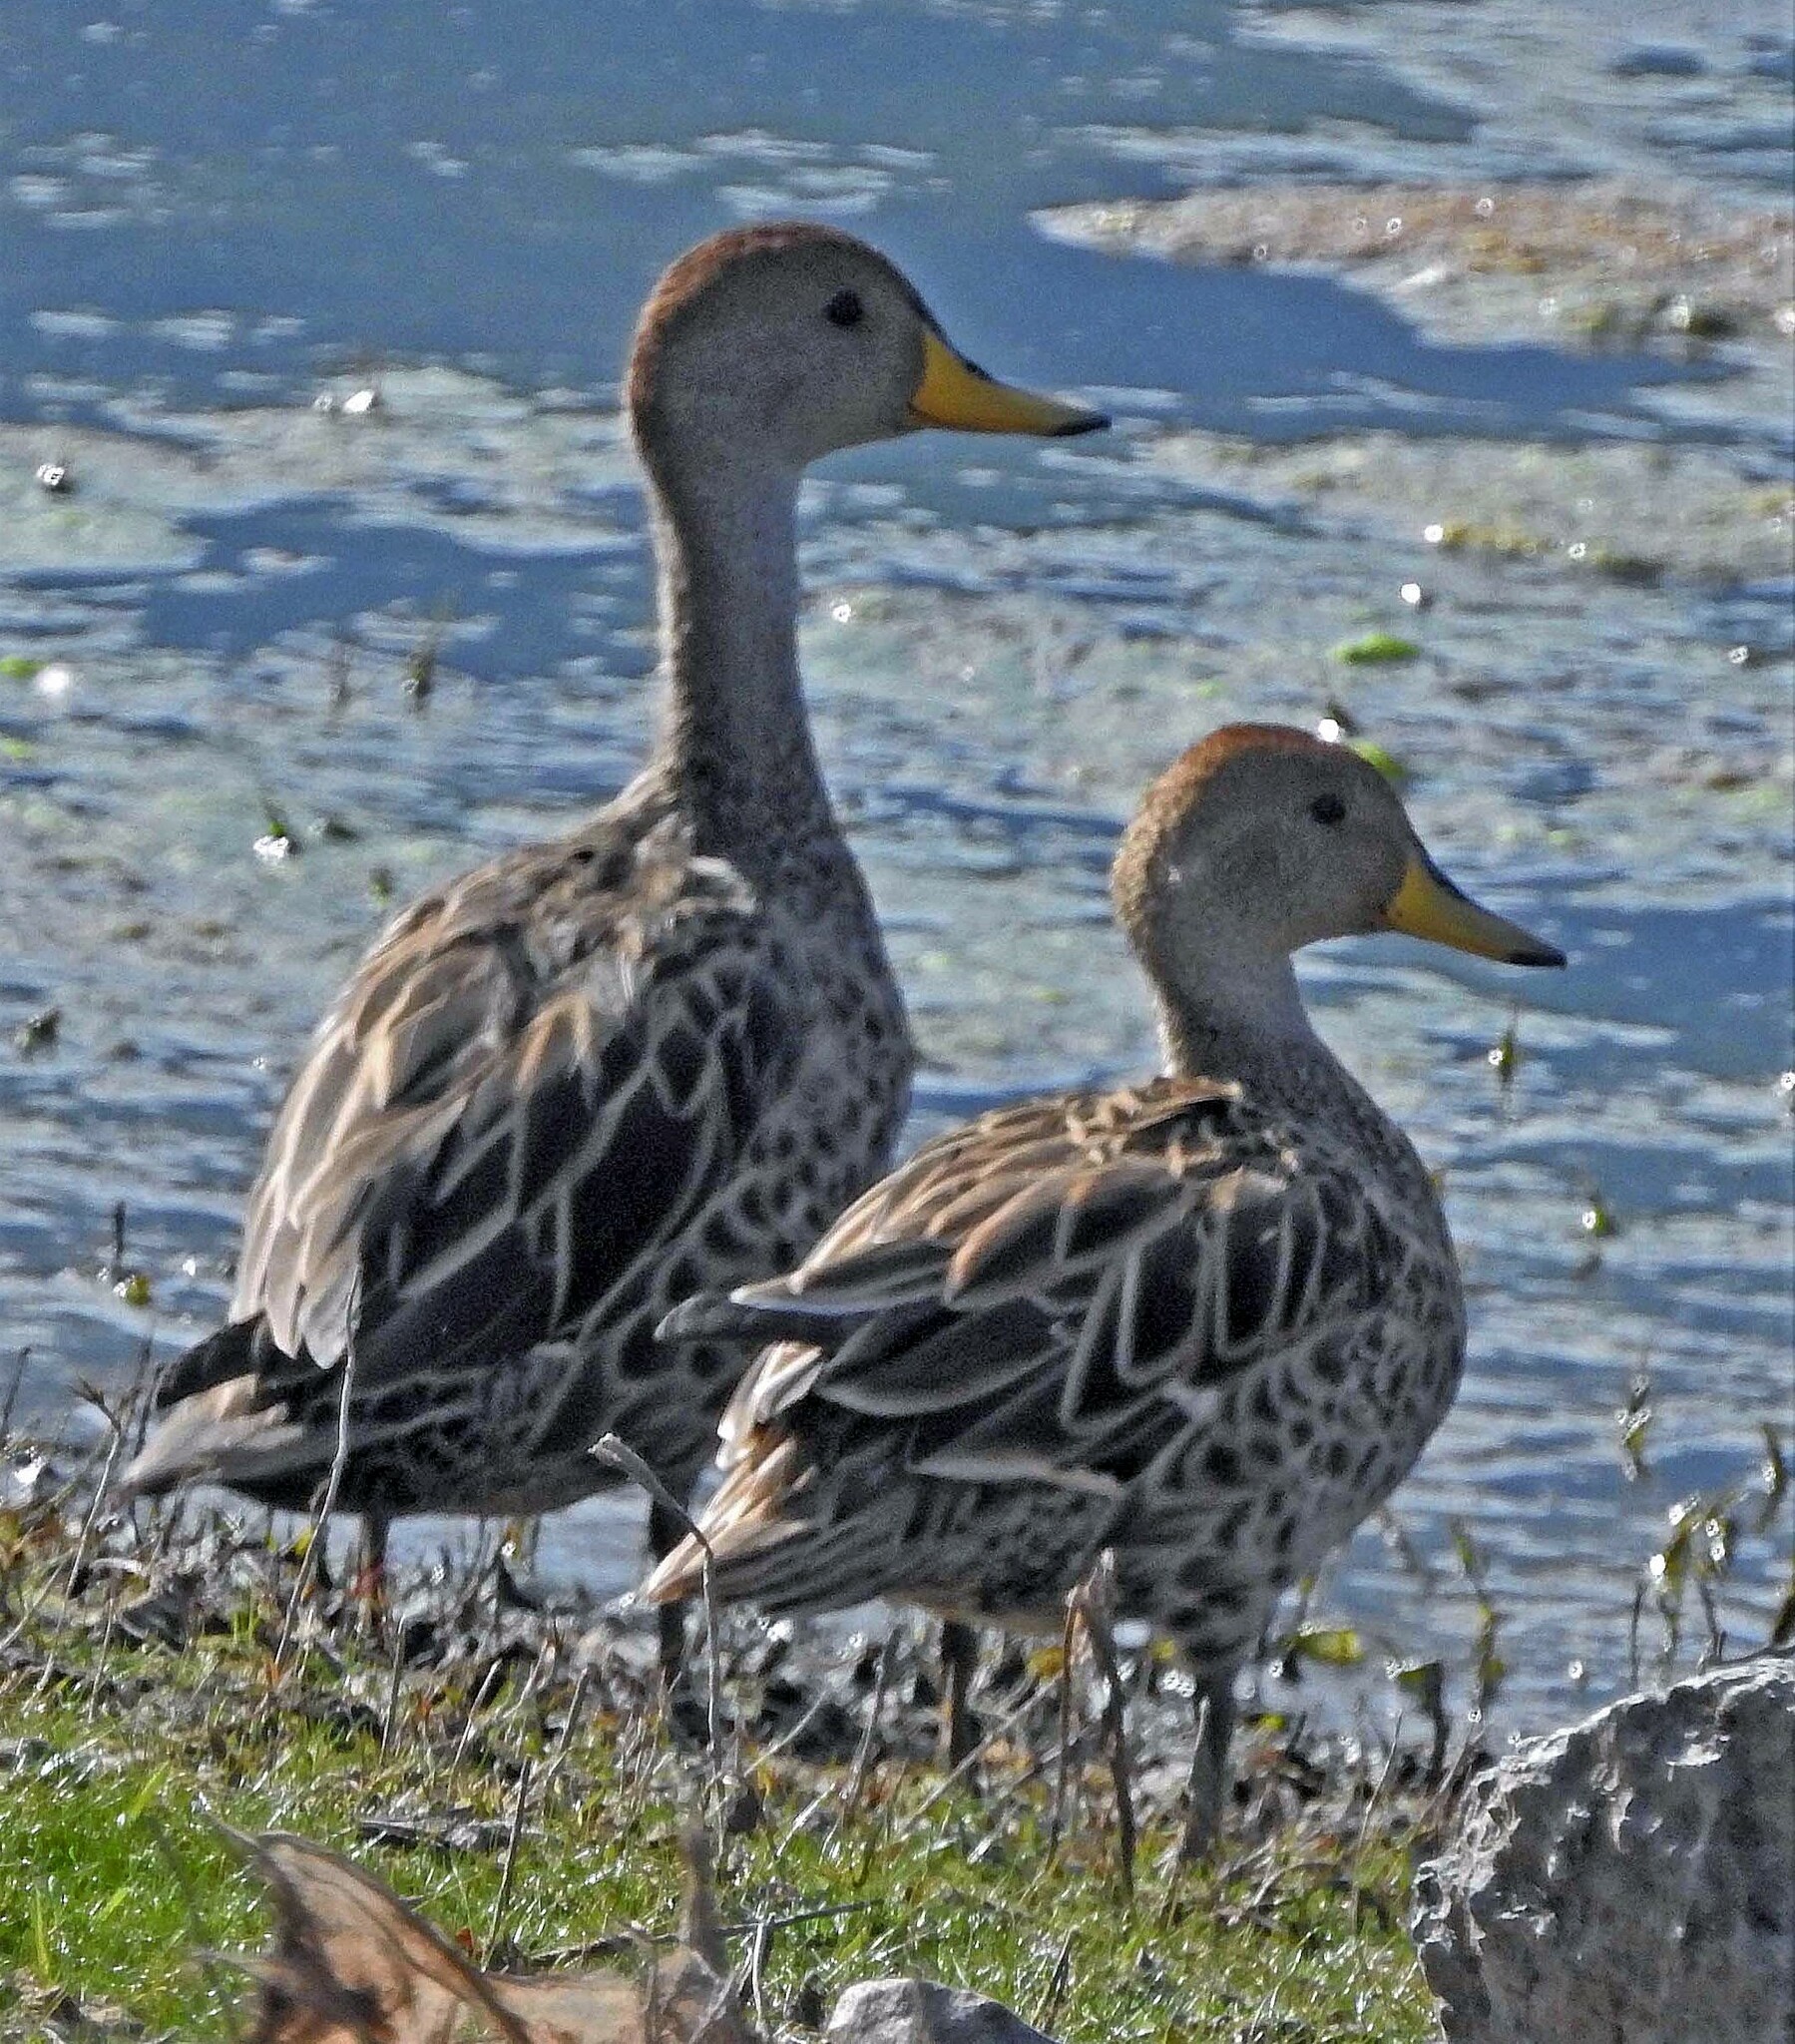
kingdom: Animalia
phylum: Chordata
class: Aves
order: Anseriformes
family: Anatidae
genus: Anas
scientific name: Anas georgica
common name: Yellow-billed pintail
